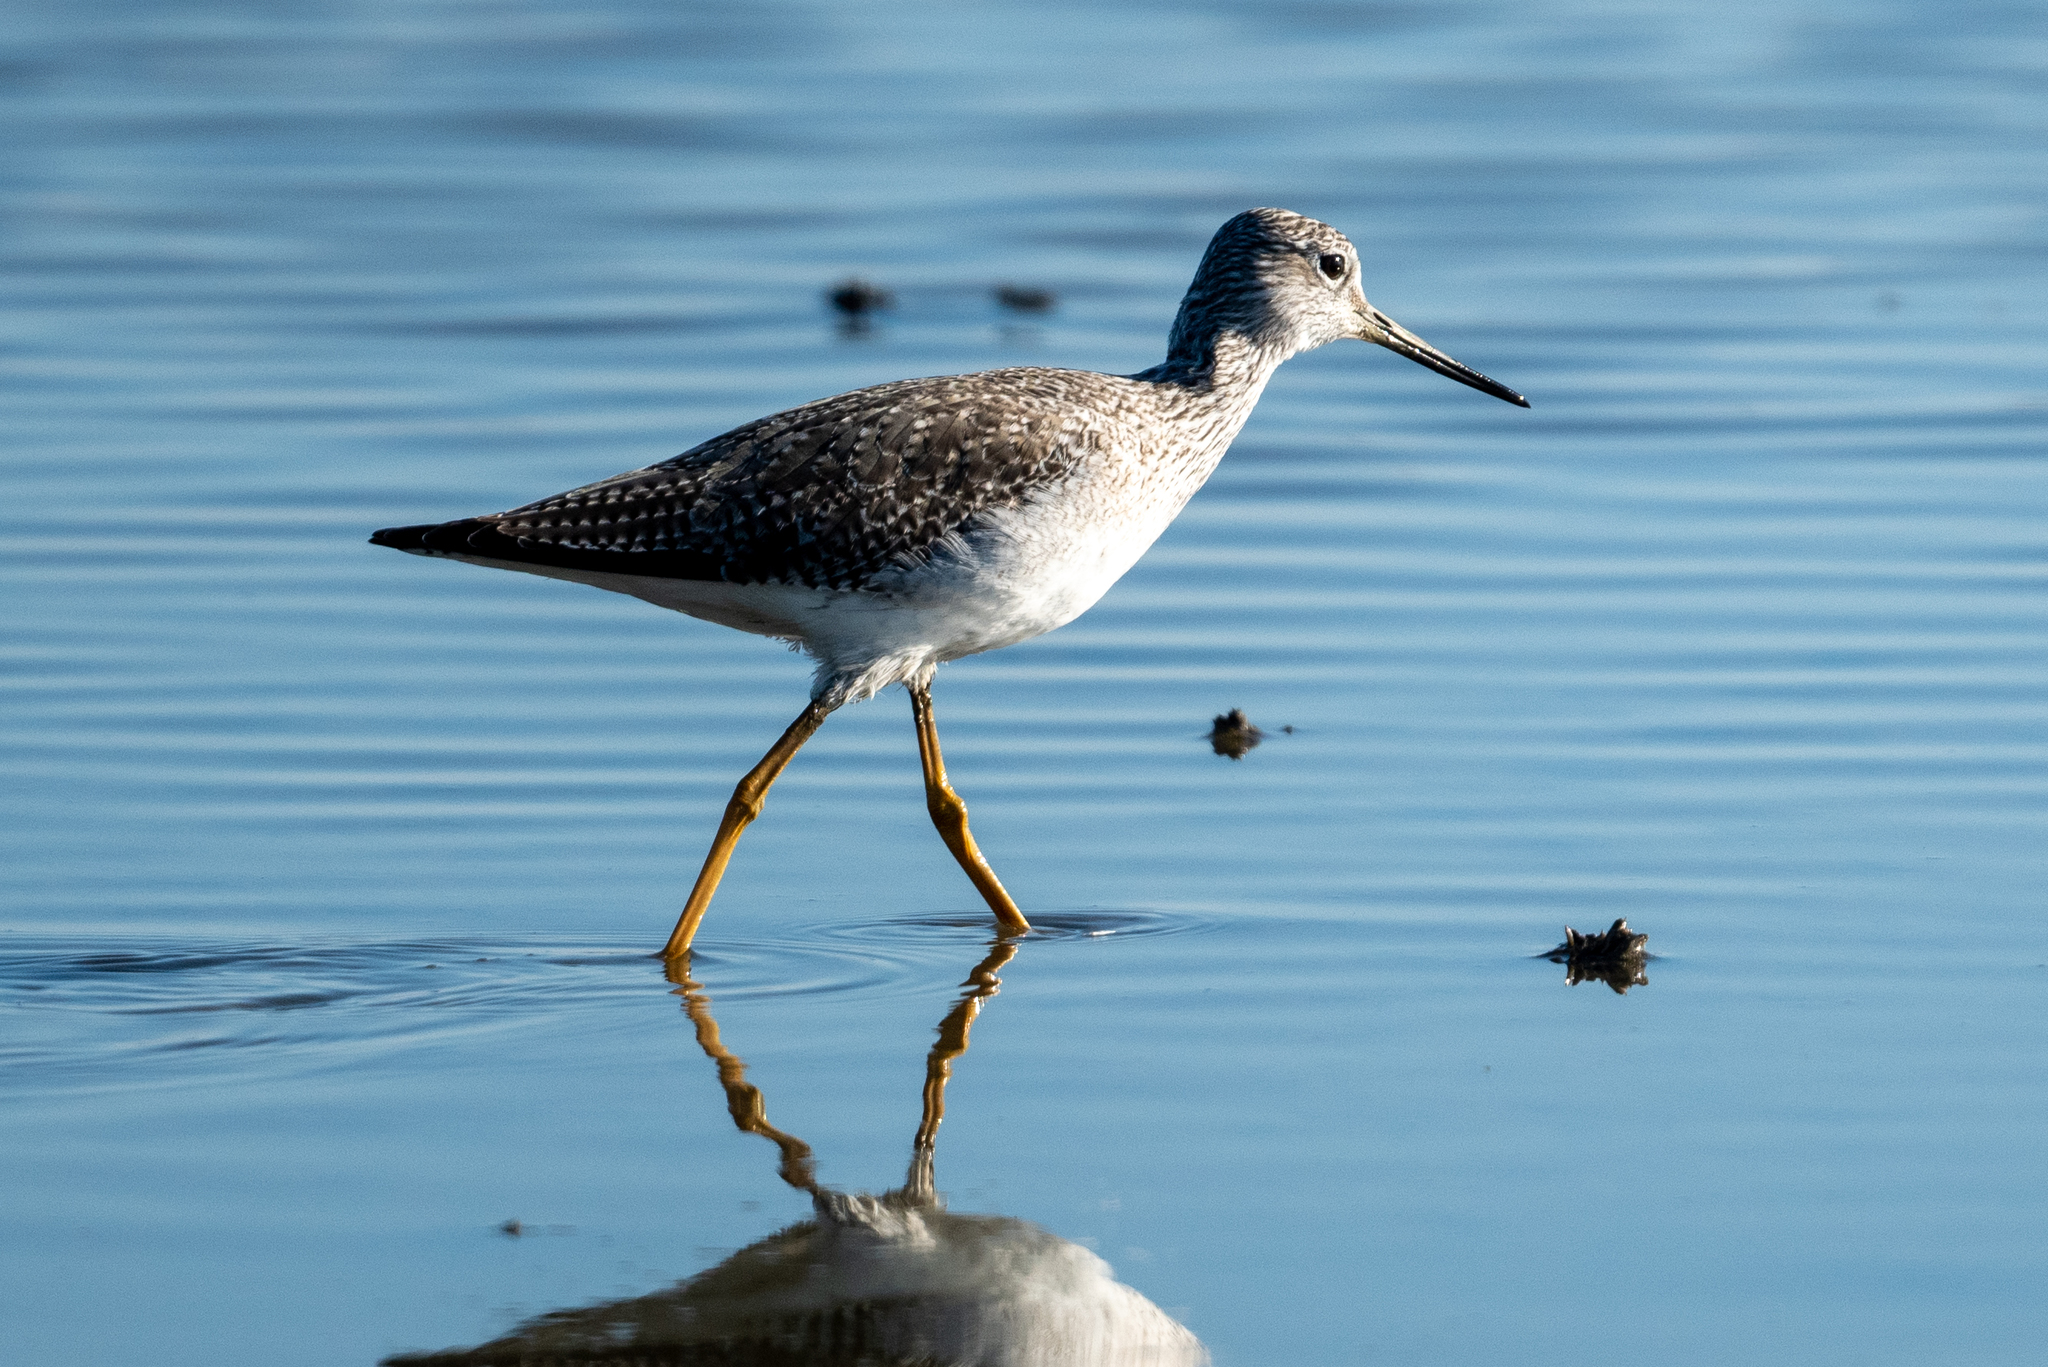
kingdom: Animalia
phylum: Chordata
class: Aves
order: Charadriiformes
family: Scolopacidae
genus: Tringa
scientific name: Tringa melanoleuca
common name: Greater yellowlegs
